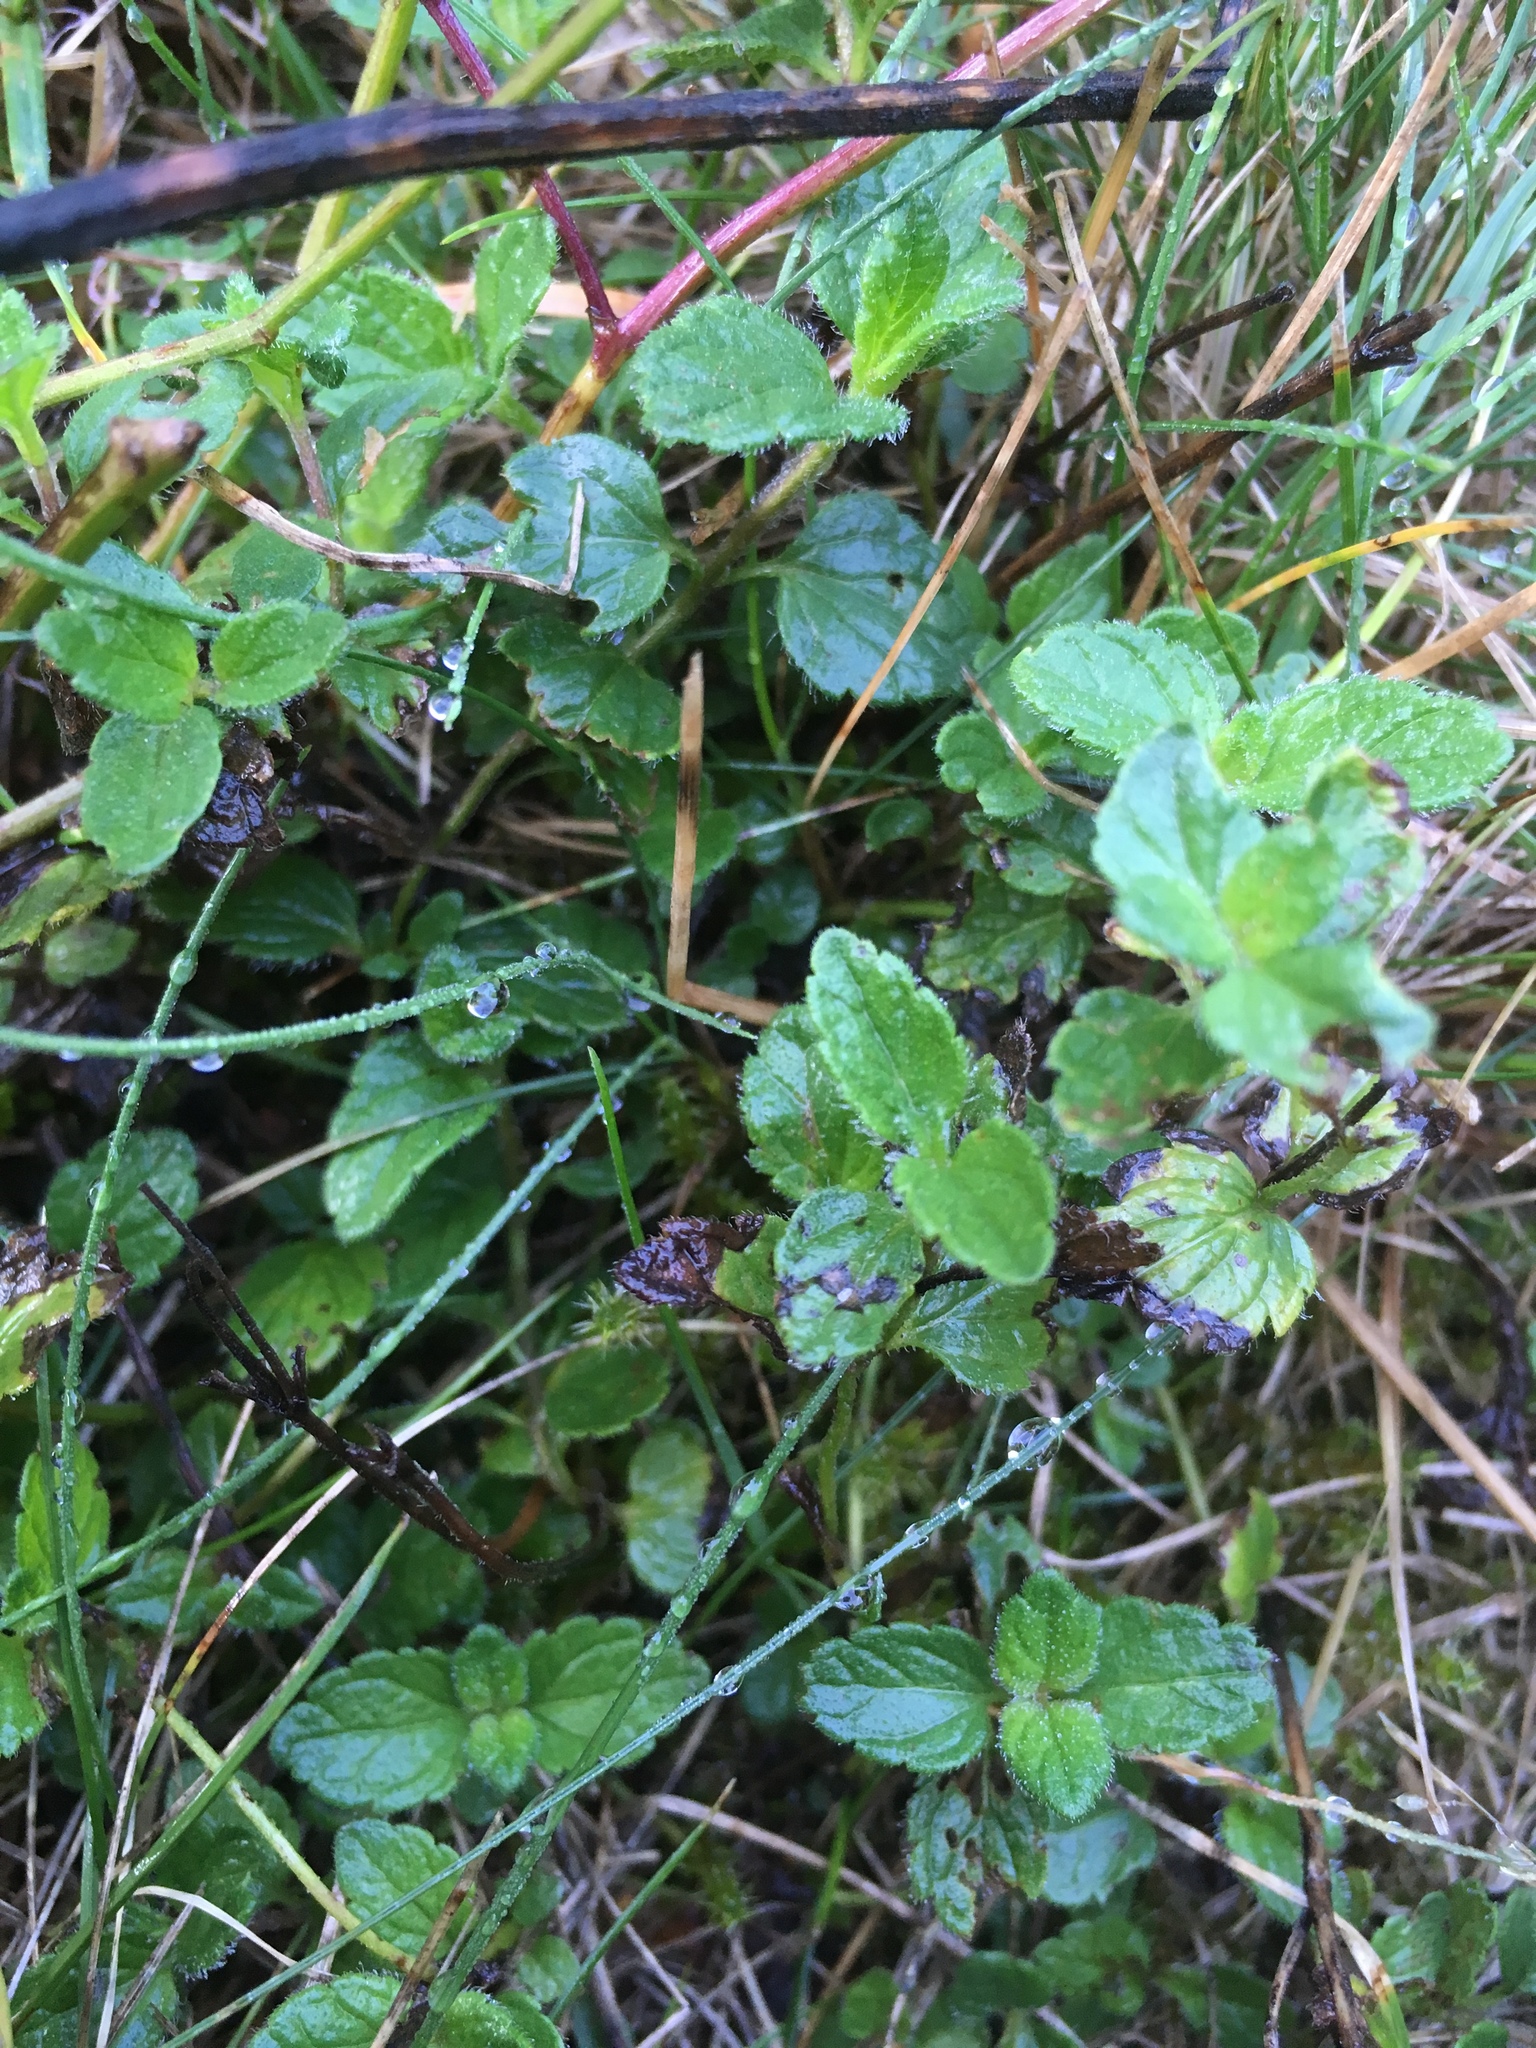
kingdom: Plantae
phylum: Tracheophyta
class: Magnoliopsida
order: Lamiales
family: Plantaginaceae
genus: Veronica
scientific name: Veronica chamaedrys
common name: Germander speedwell
